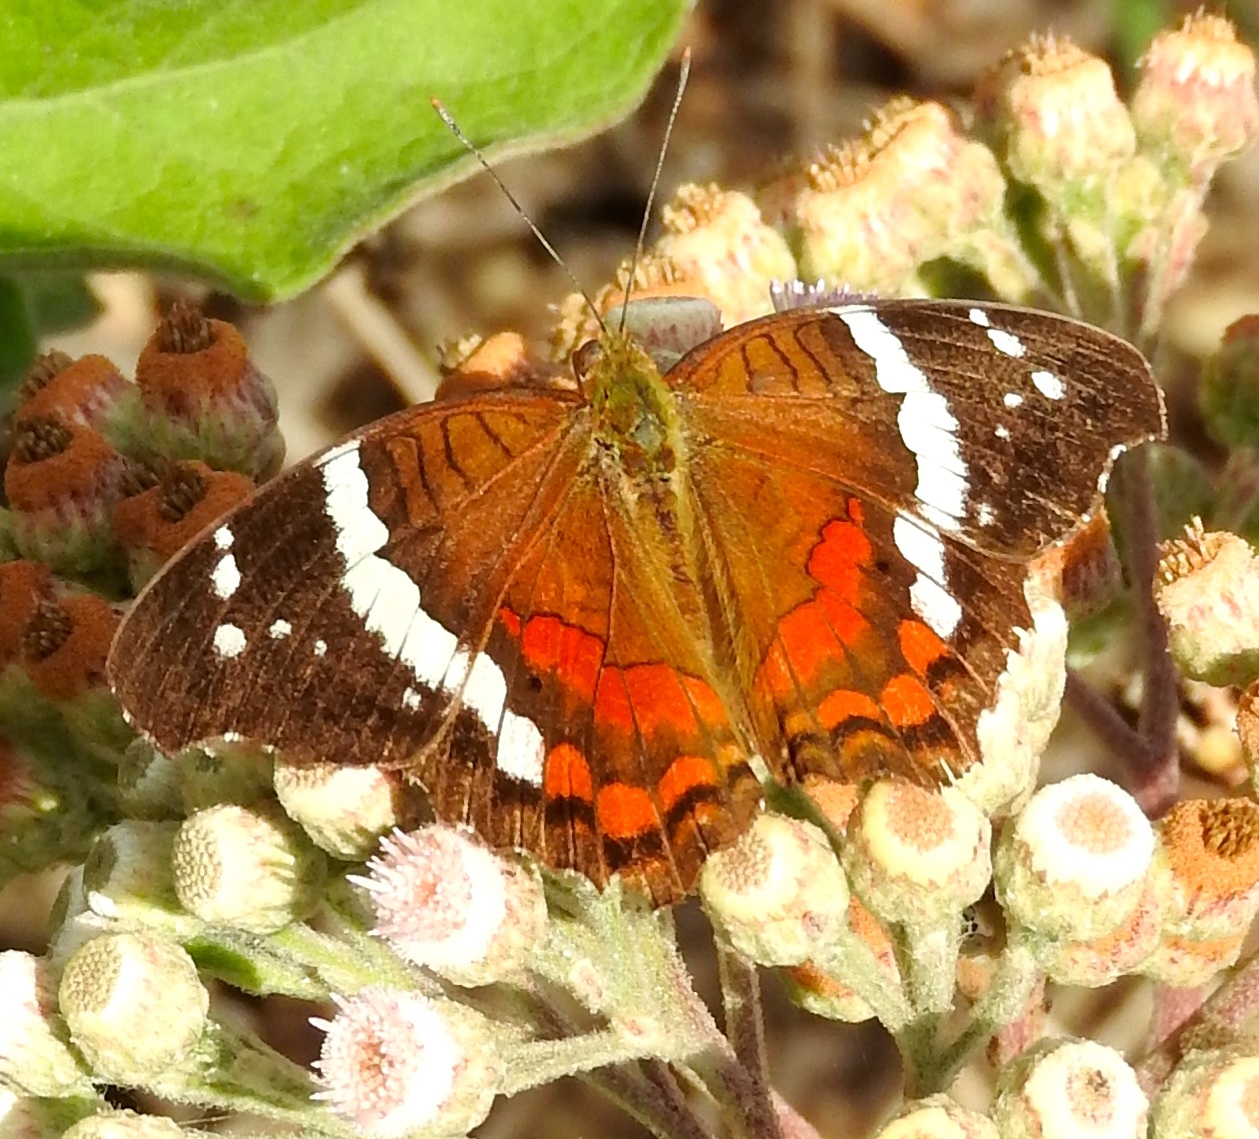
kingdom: Animalia
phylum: Arthropoda
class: Insecta
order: Lepidoptera
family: Nymphalidae
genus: Anartia
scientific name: Anartia fatima
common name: Banded peacock
